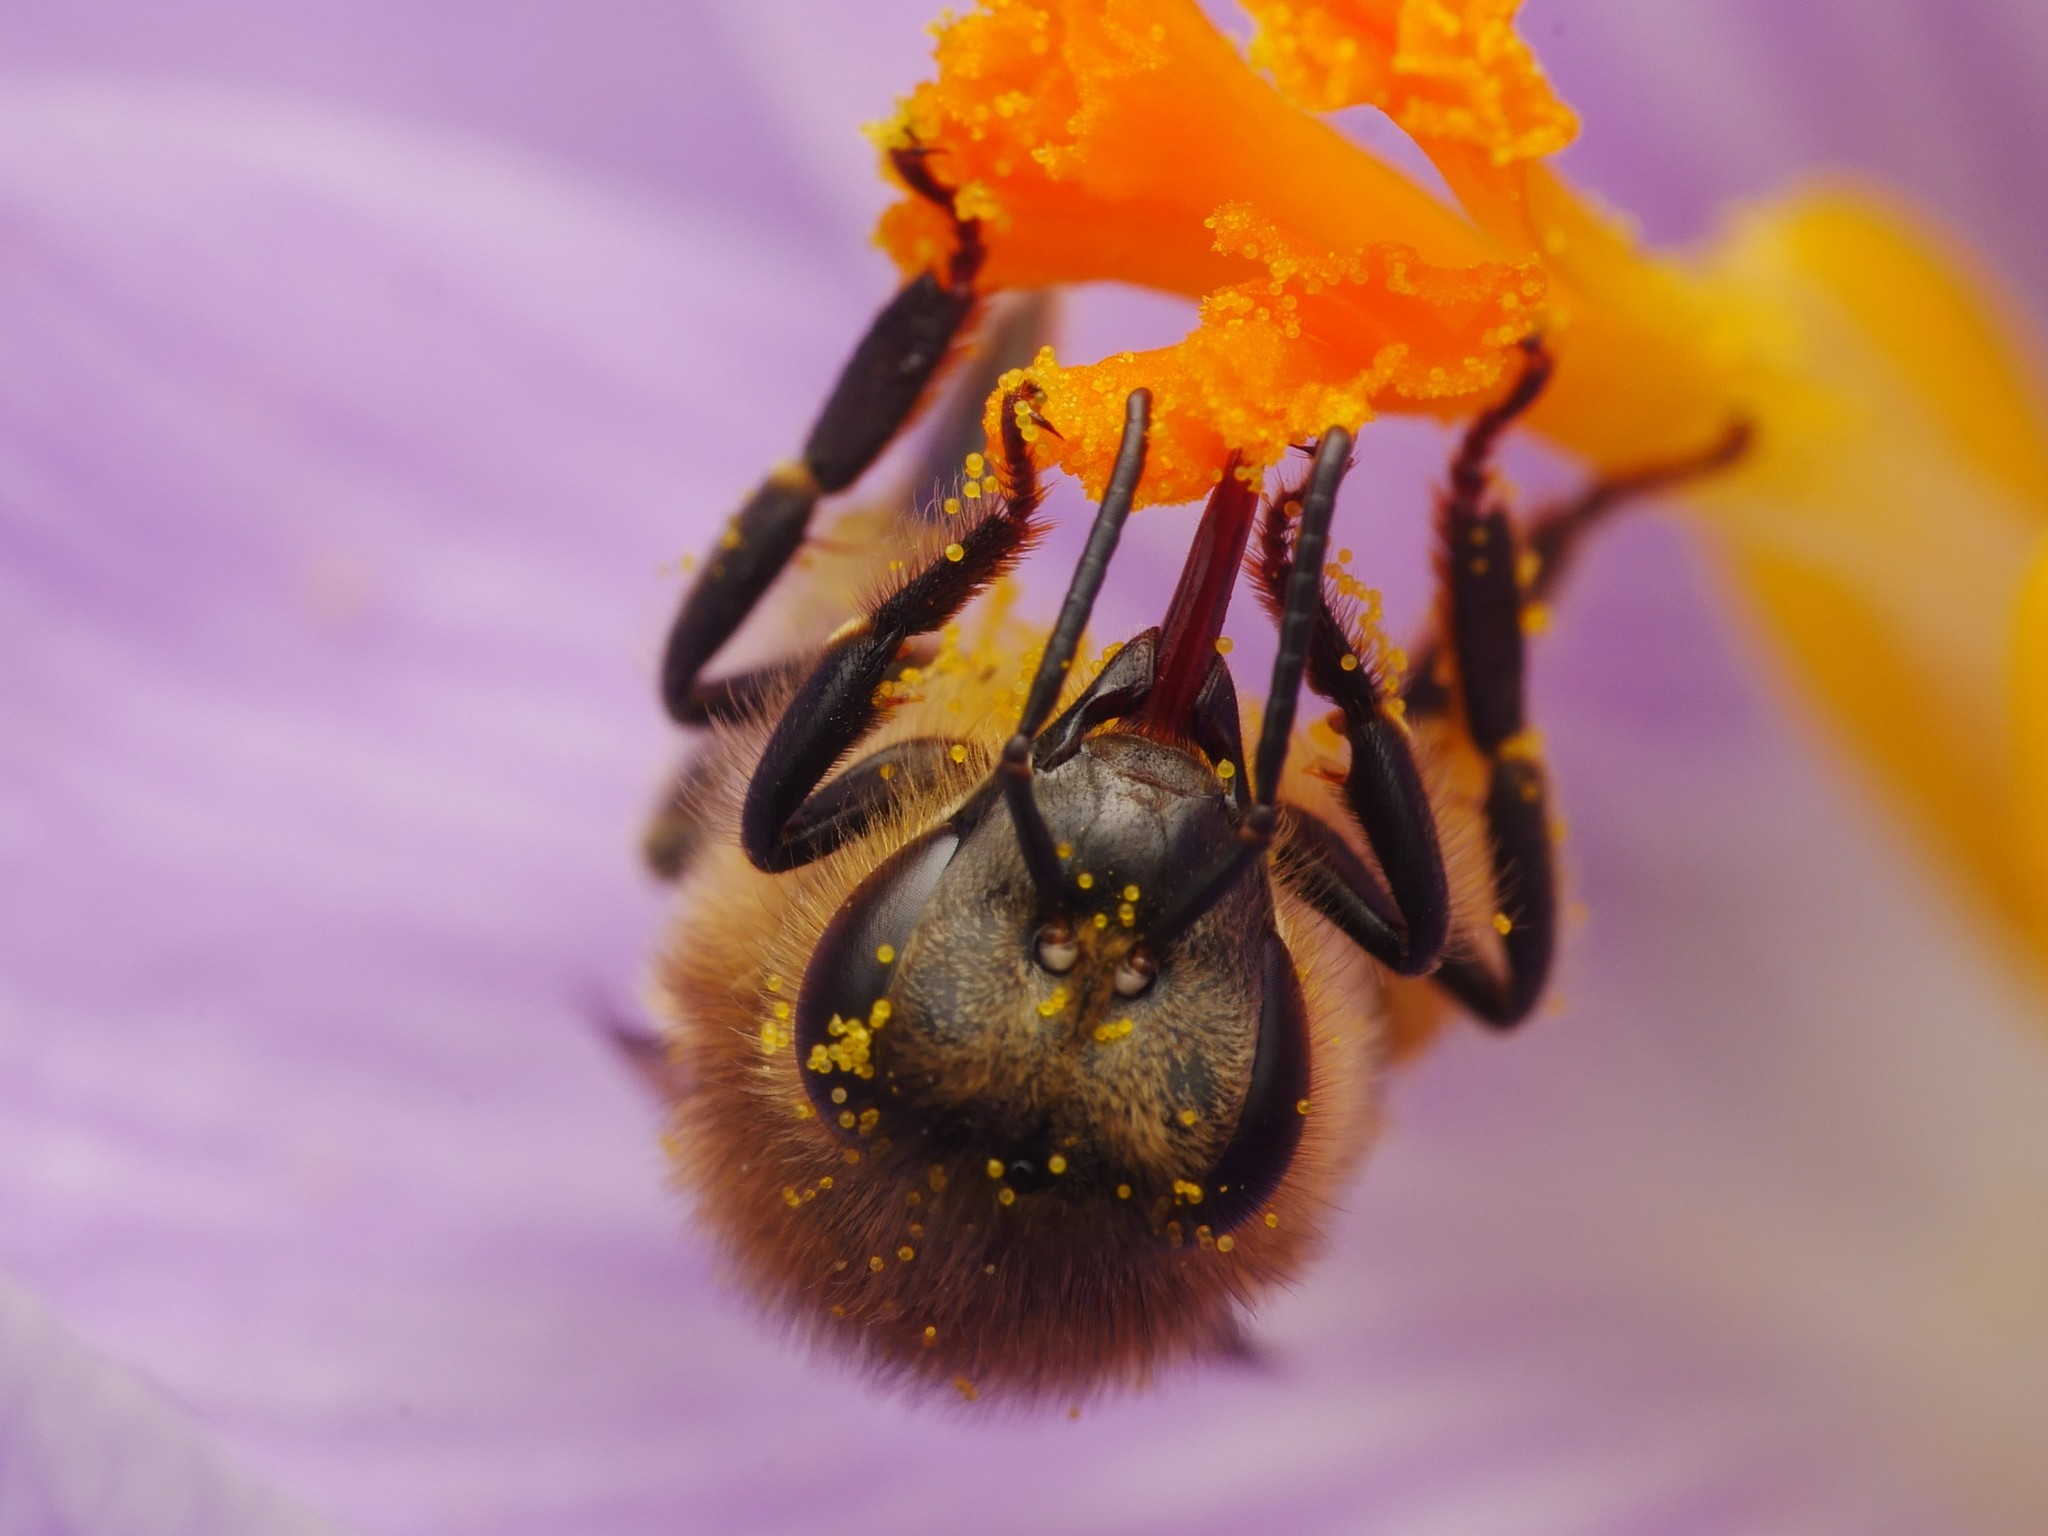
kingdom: Animalia
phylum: Arthropoda
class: Insecta
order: Hymenoptera
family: Apidae
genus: Apis
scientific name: Apis mellifera
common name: Honey bee
